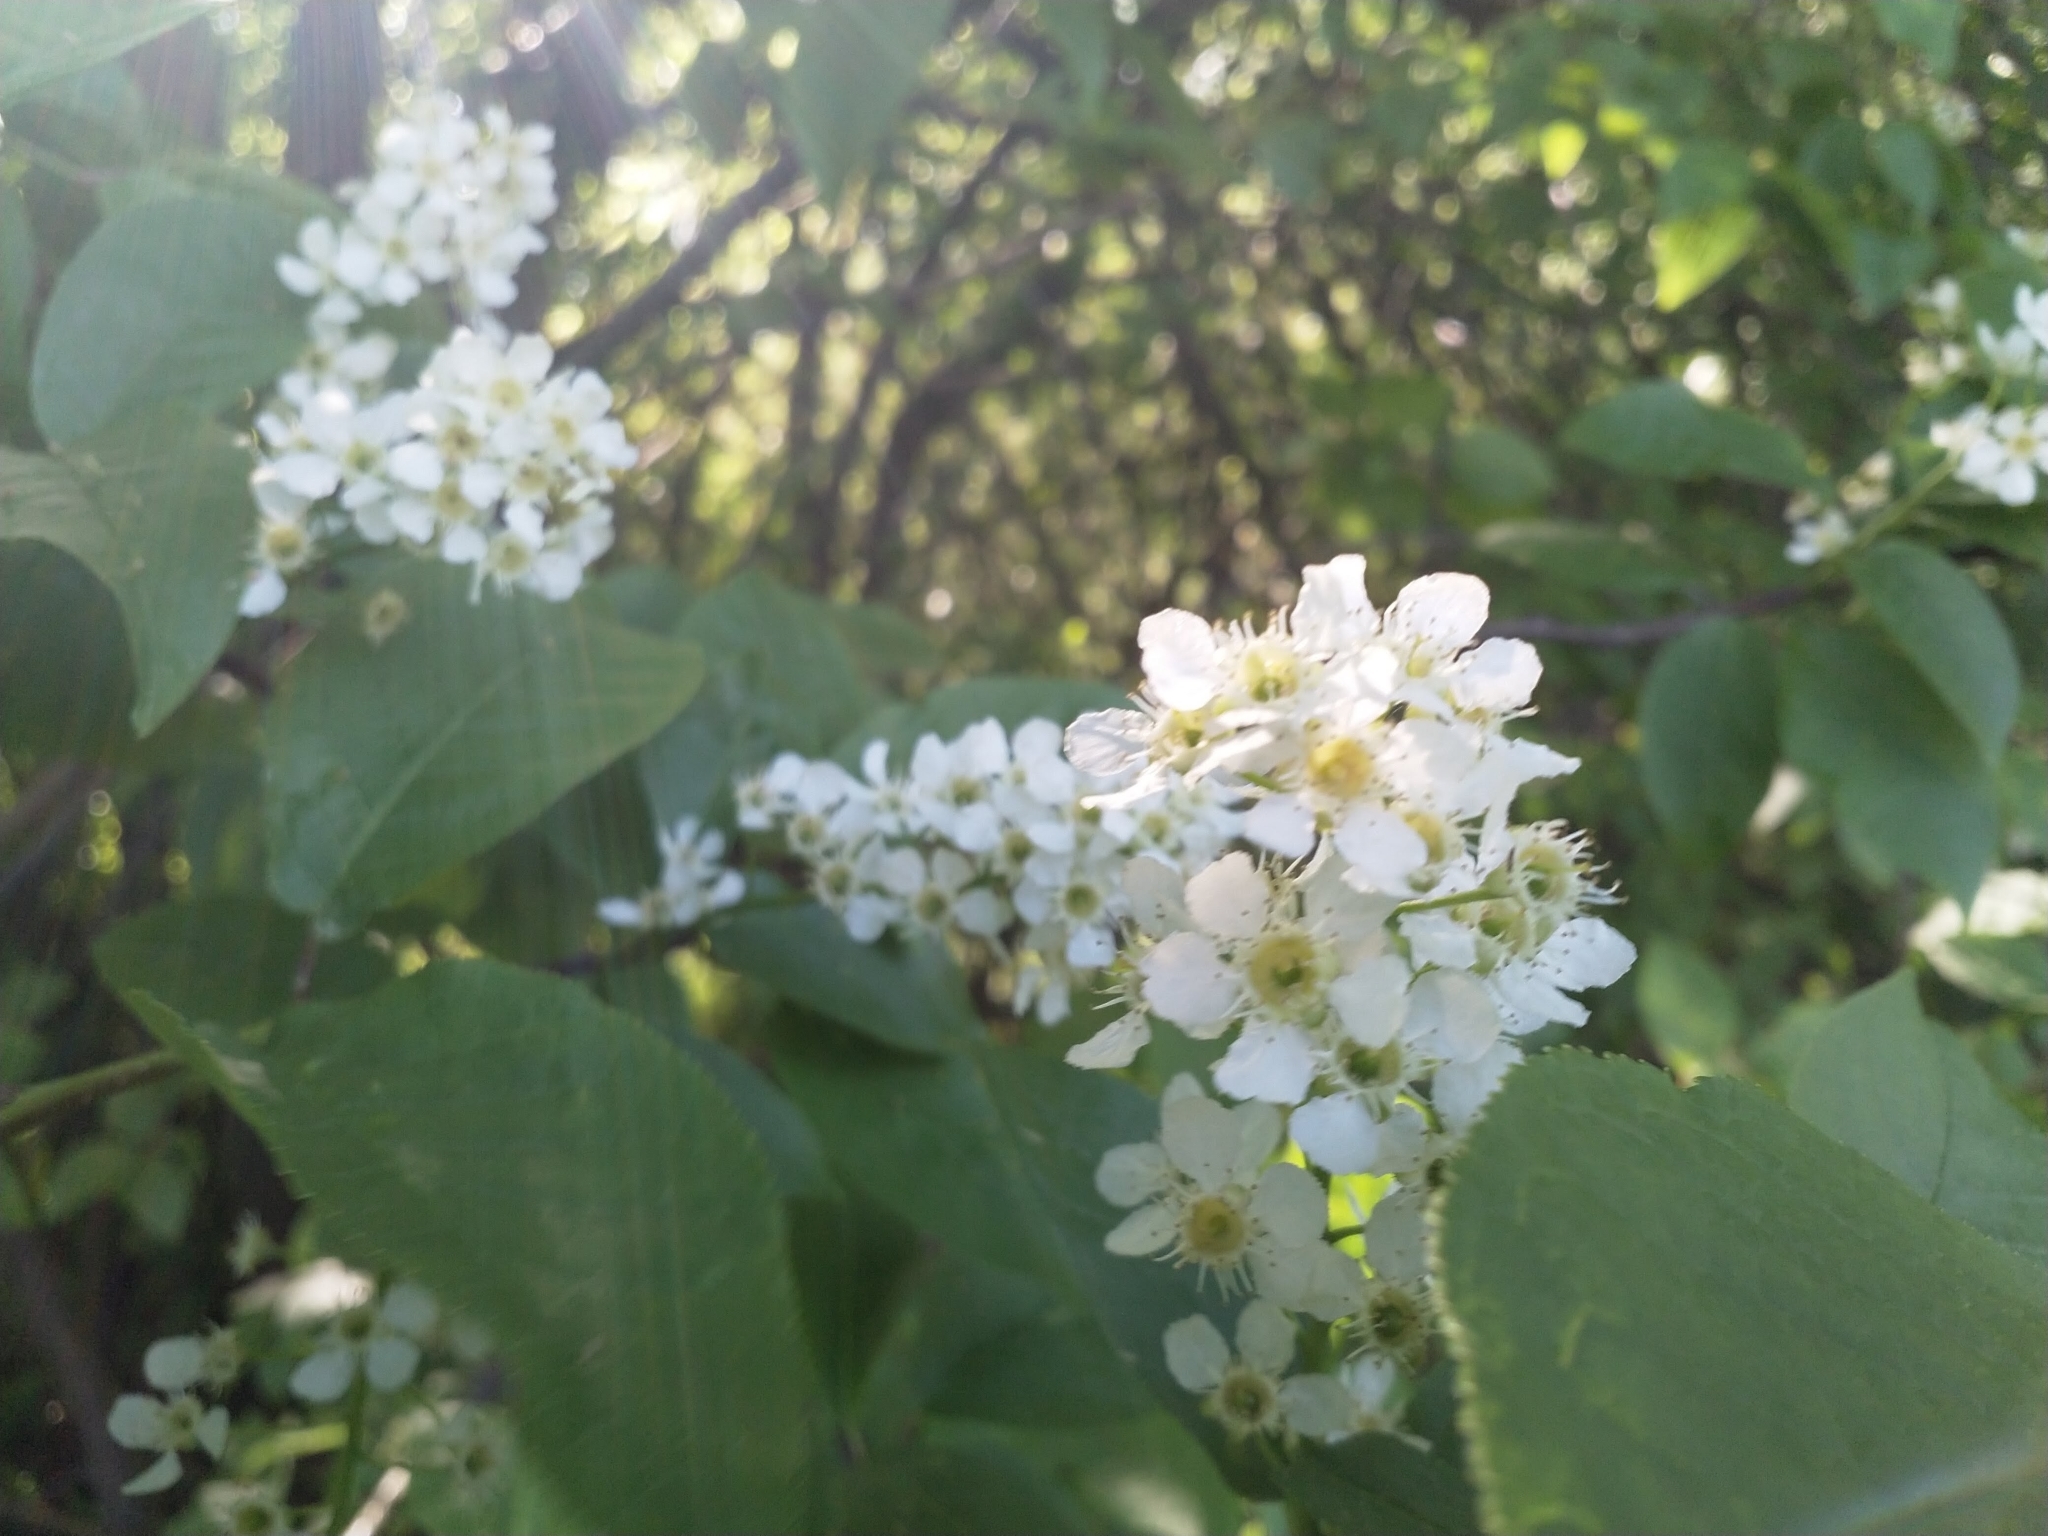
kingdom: Plantae
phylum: Tracheophyta
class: Magnoliopsida
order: Rosales
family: Rosaceae
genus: Prunus
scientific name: Prunus padus
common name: Bird cherry
